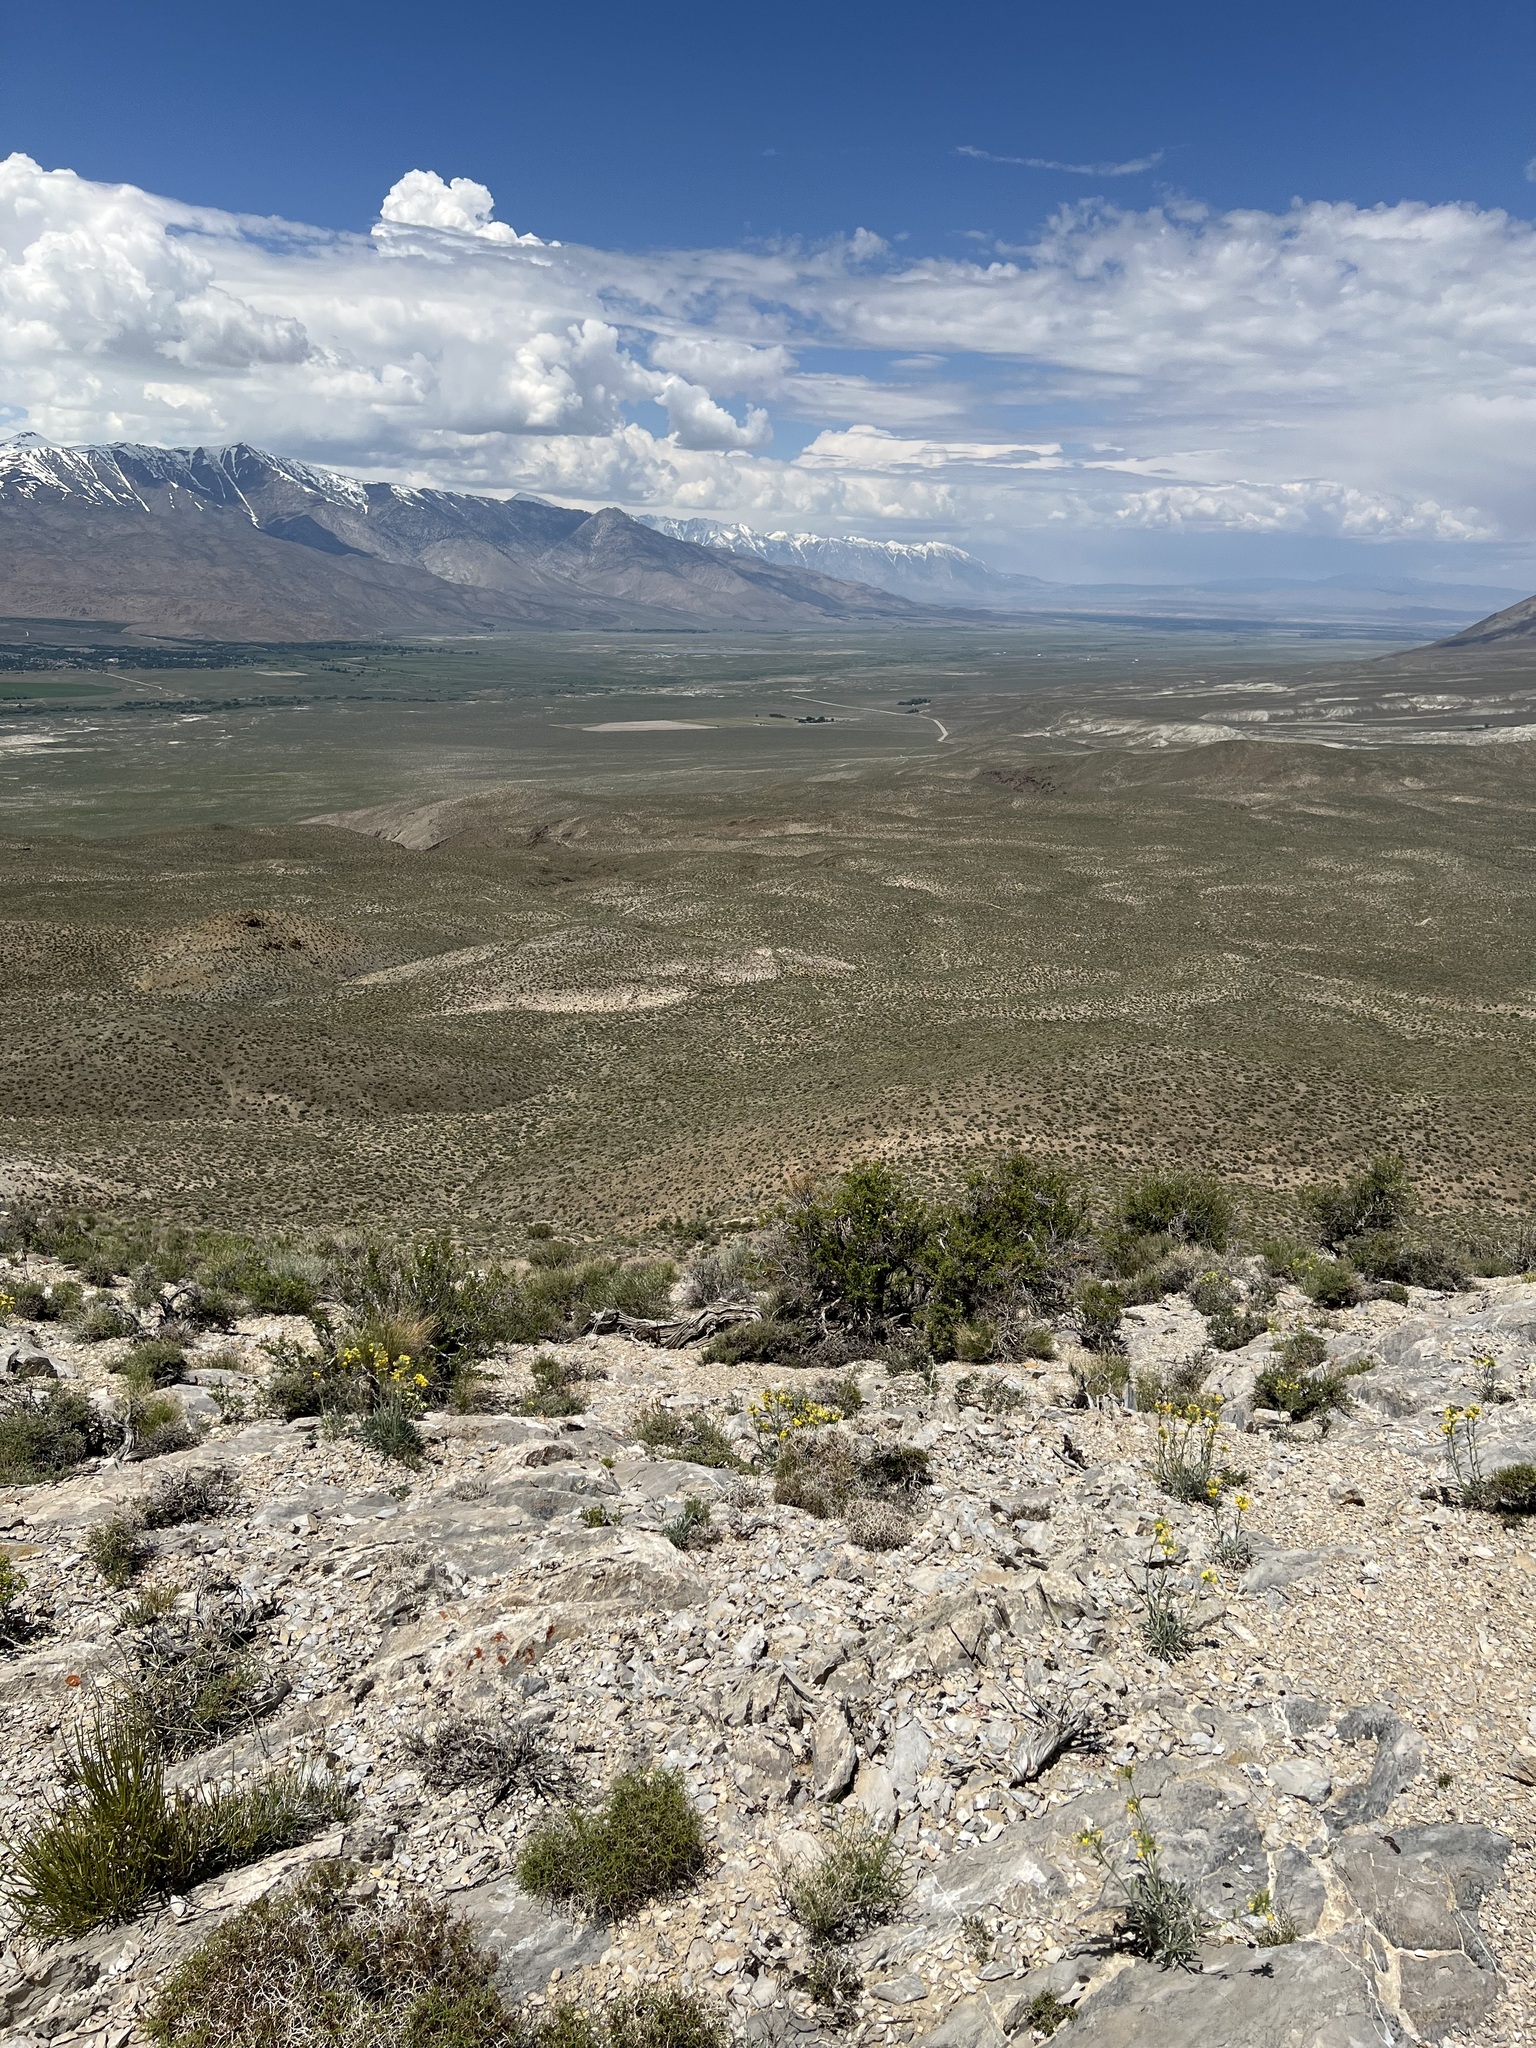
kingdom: Plantae
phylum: Tracheophyta
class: Magnoliopsida
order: Boraginales
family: Boraginaceae
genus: Oreocarya
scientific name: Oreocarya confertiflora
